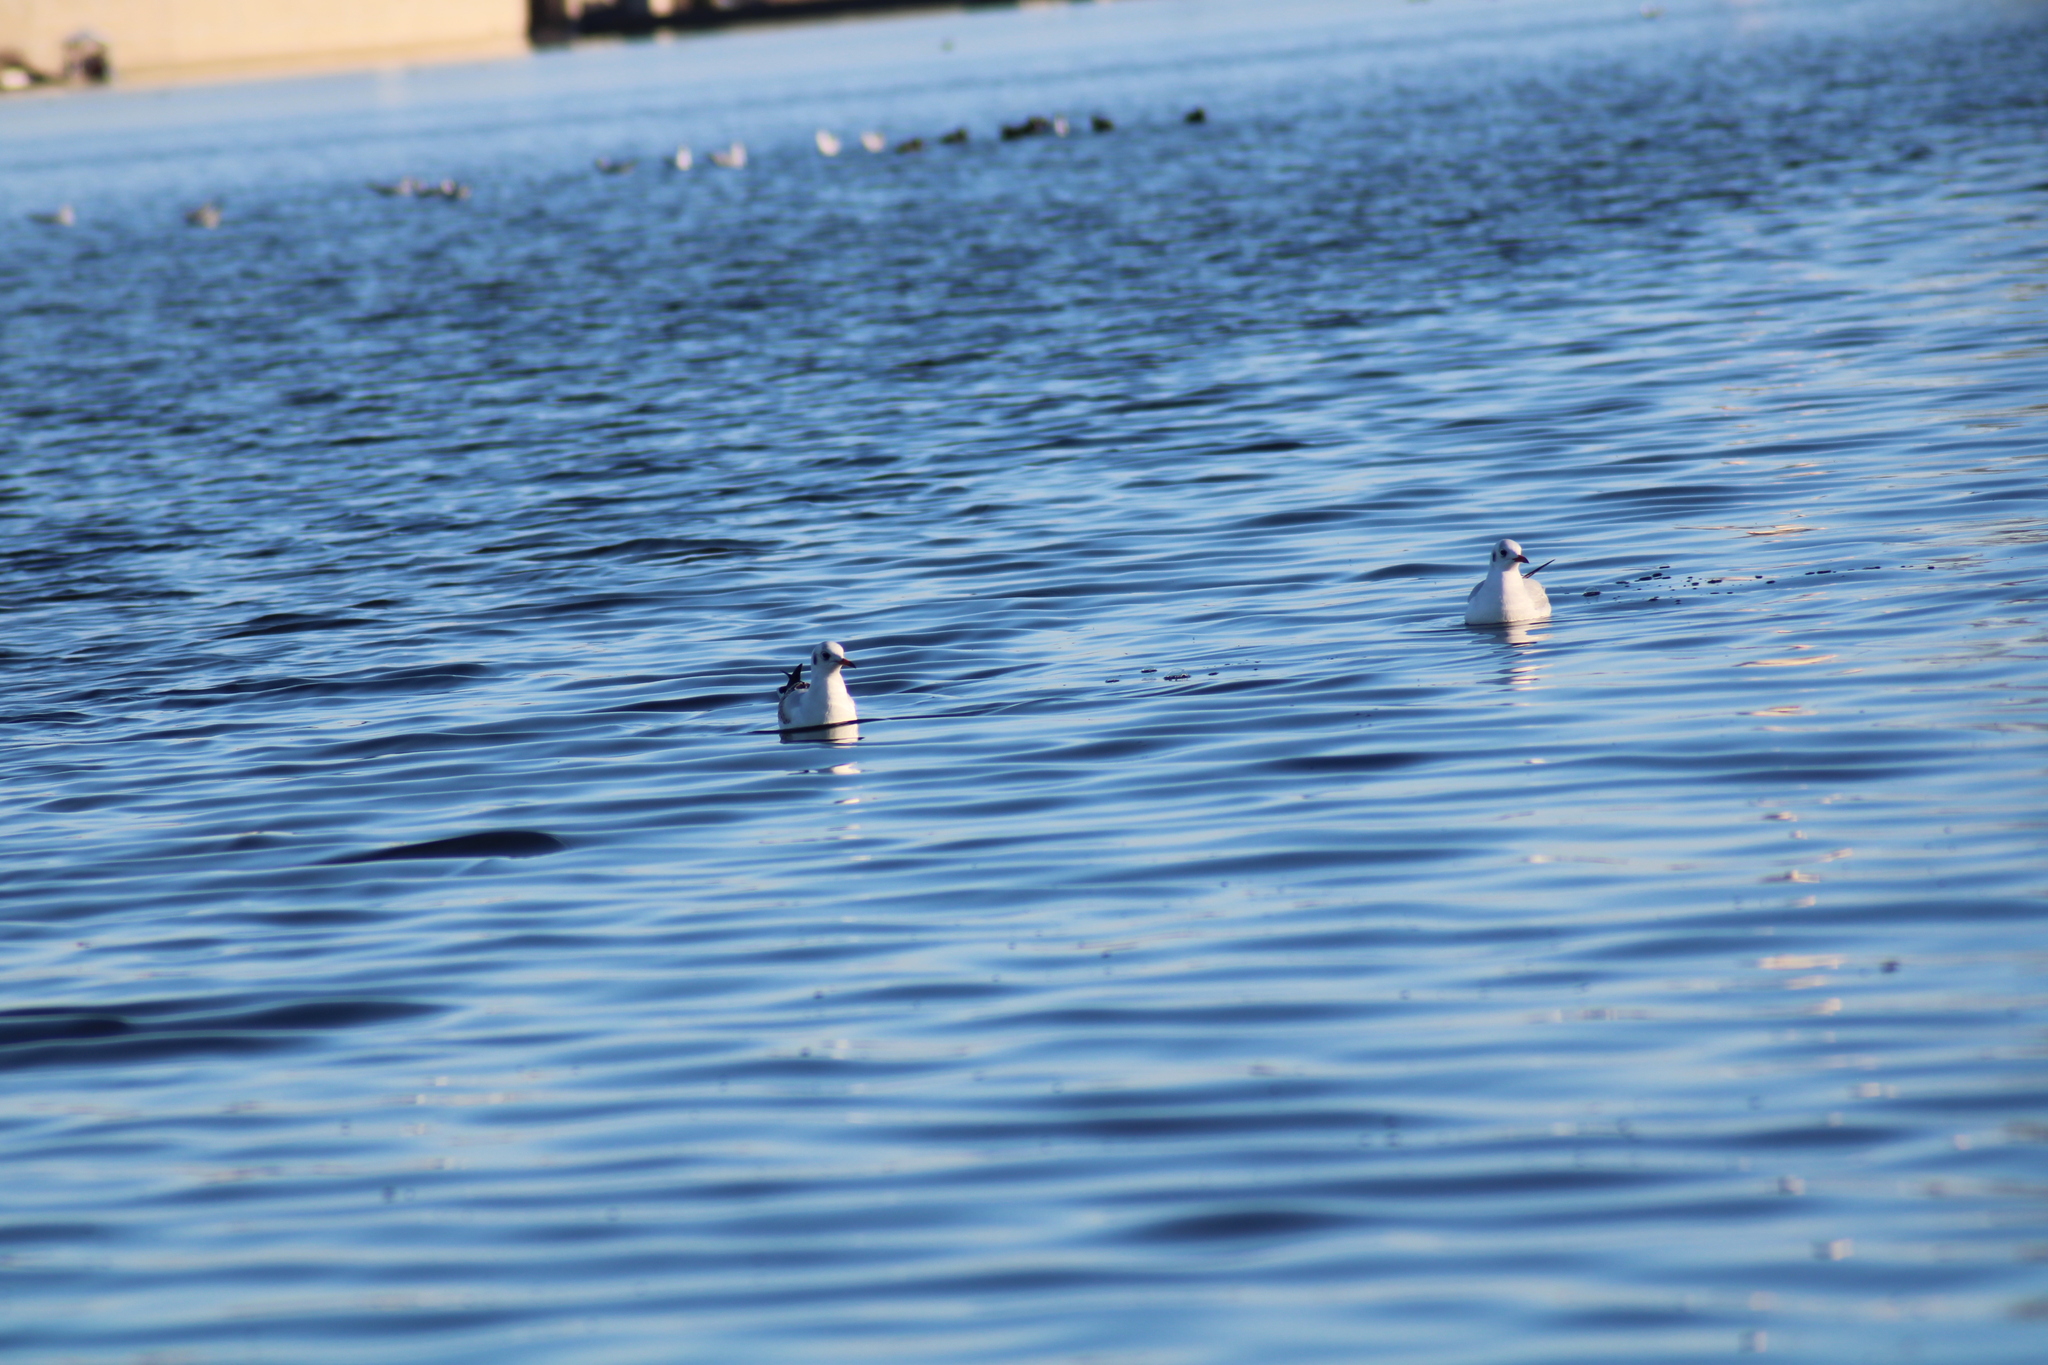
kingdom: Animalia
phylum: Chordata
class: Aves
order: Charadriiformes
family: Laridae
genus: Chroicocephalus
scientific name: Chroicocephalus ridibundus
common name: Black-headed gull
